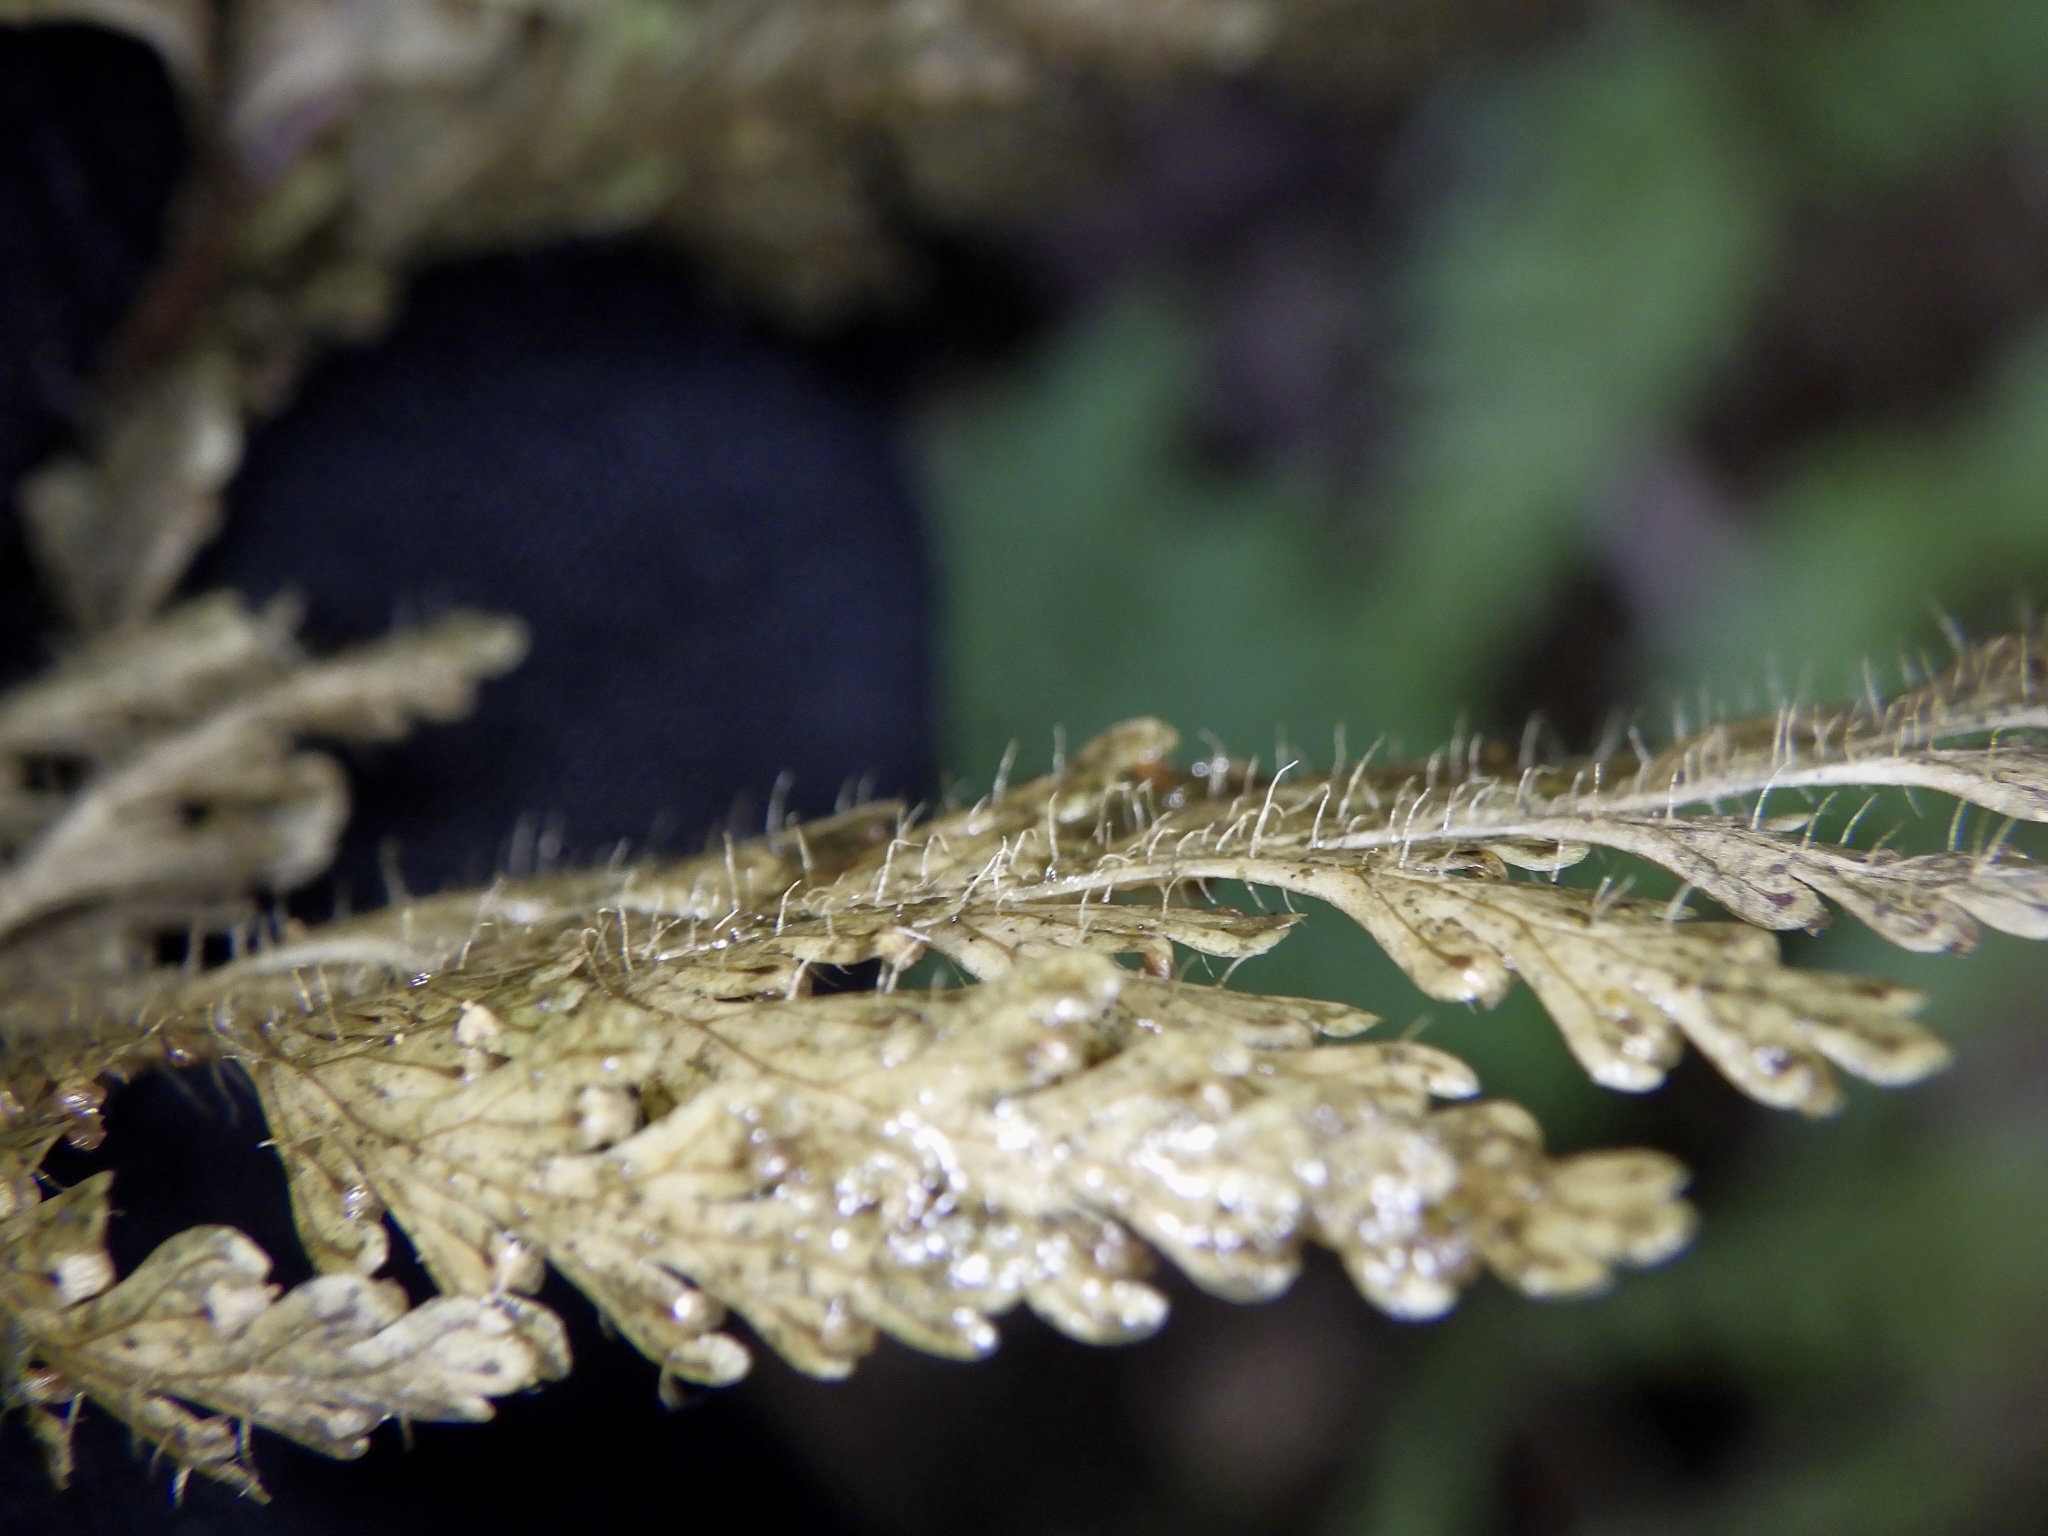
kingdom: Plantae
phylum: Tracheophyta
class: Polypodiopsida
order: Polypodiales
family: Dennstaedtiaceae
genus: Sitobolium
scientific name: Sitobolium zeylanicum
